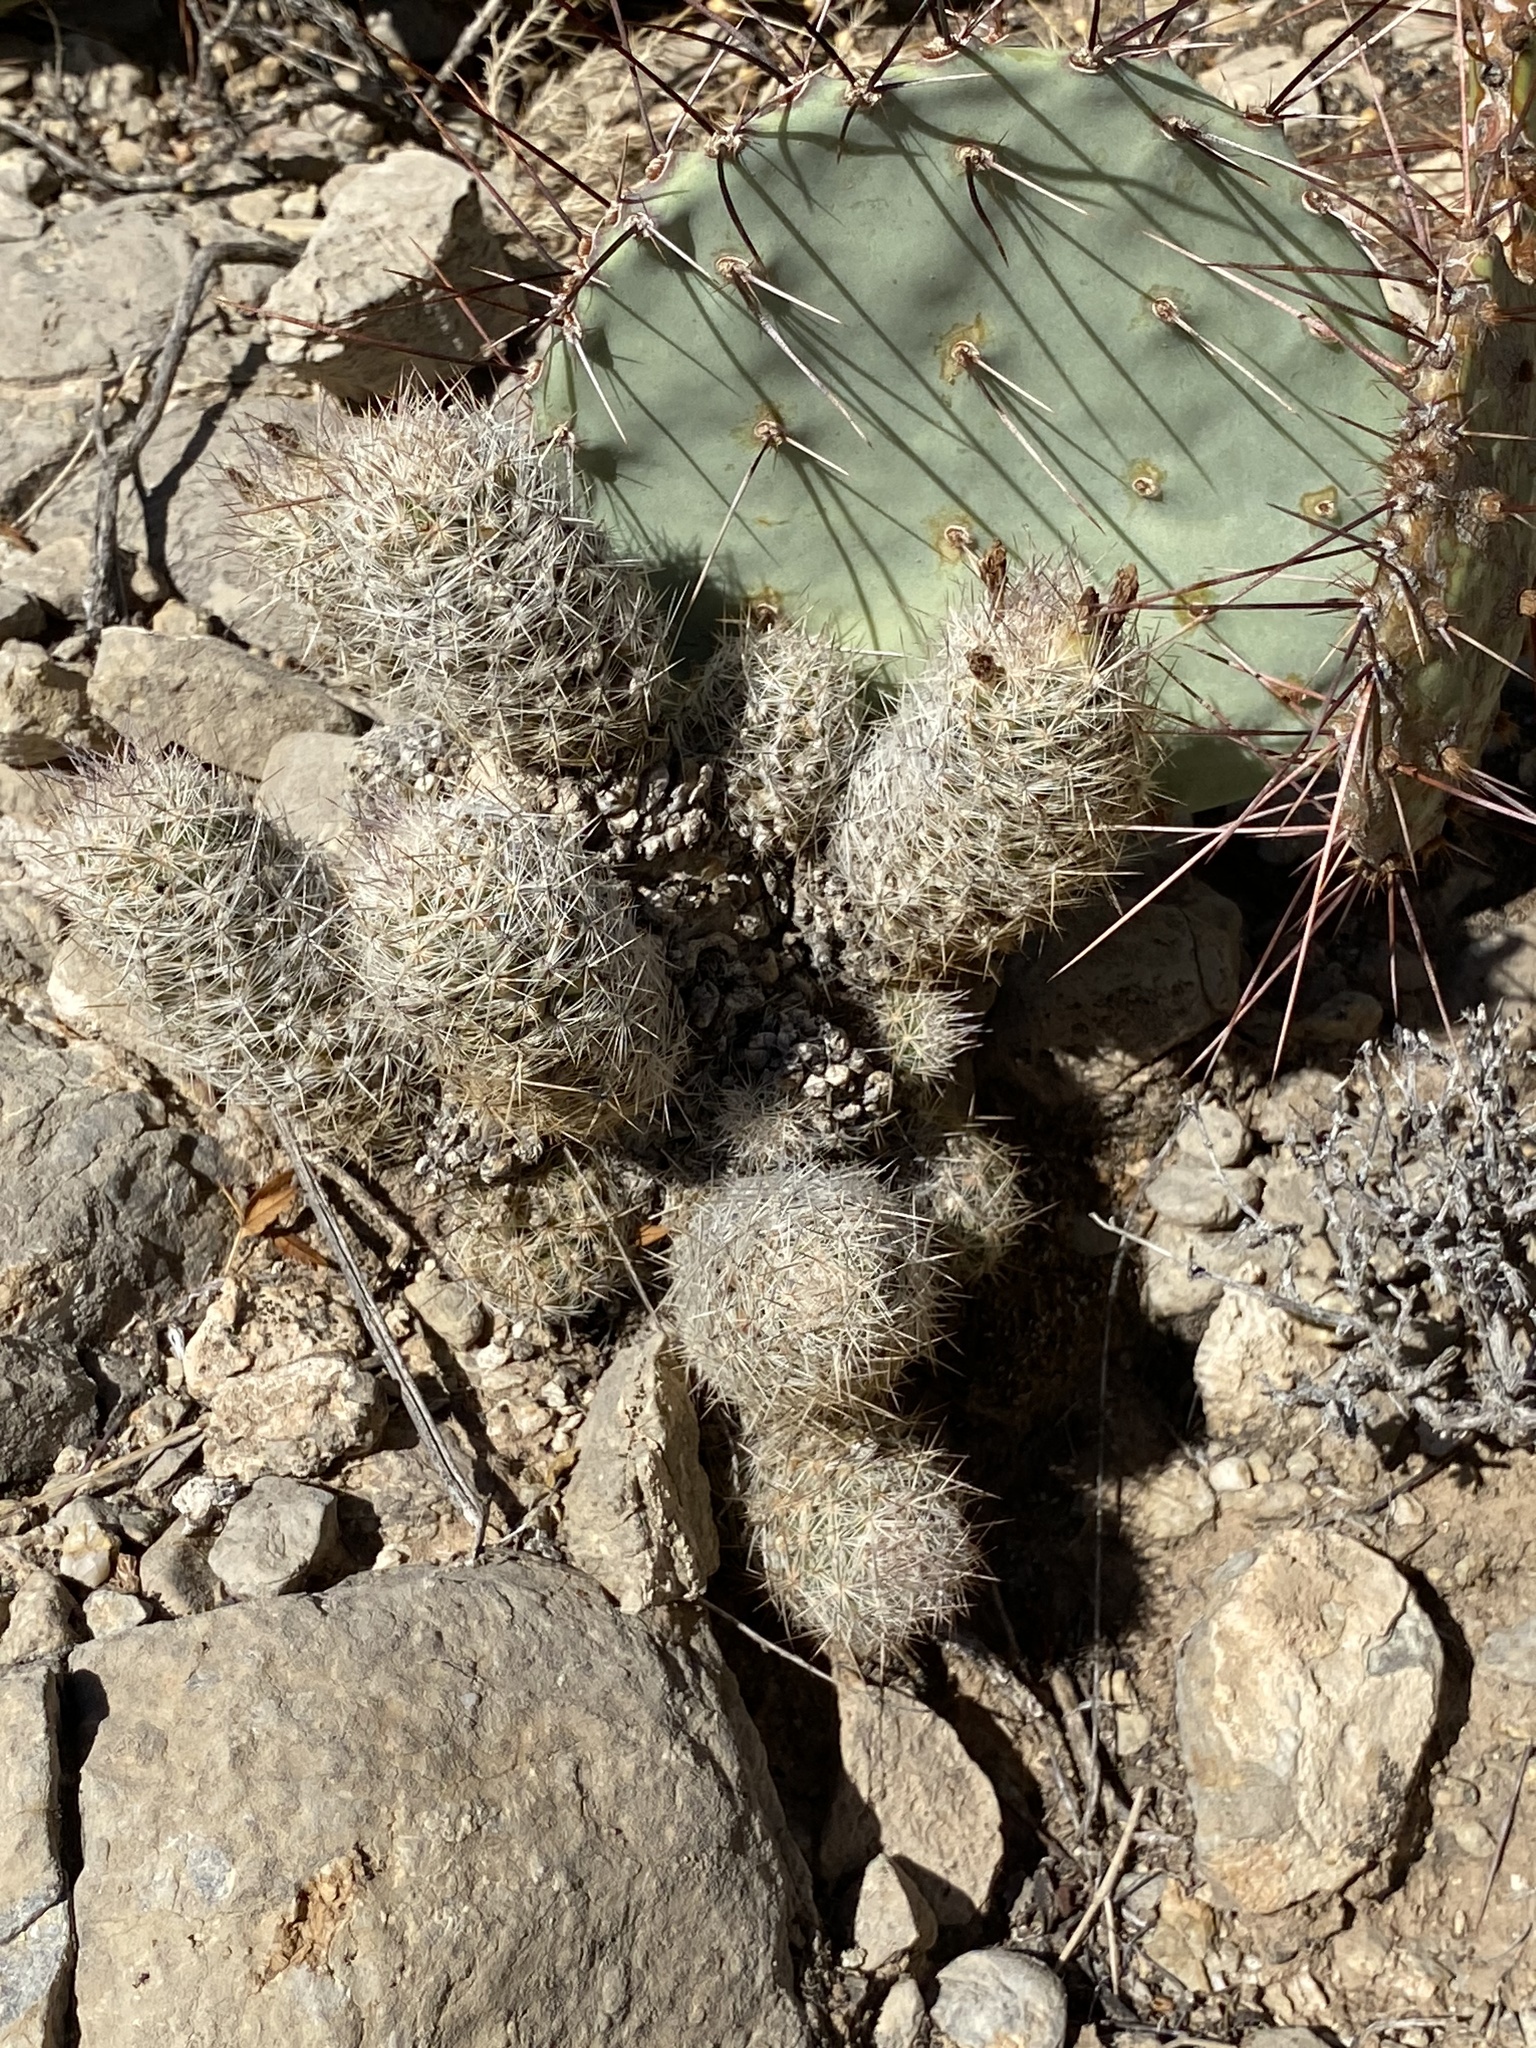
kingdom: Plantae
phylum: Tracheophyta
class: Magnoliopsida
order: Caryophyllales
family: Cactaceae
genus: Pelecyphora
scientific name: Pelecyphora tuberculosa
